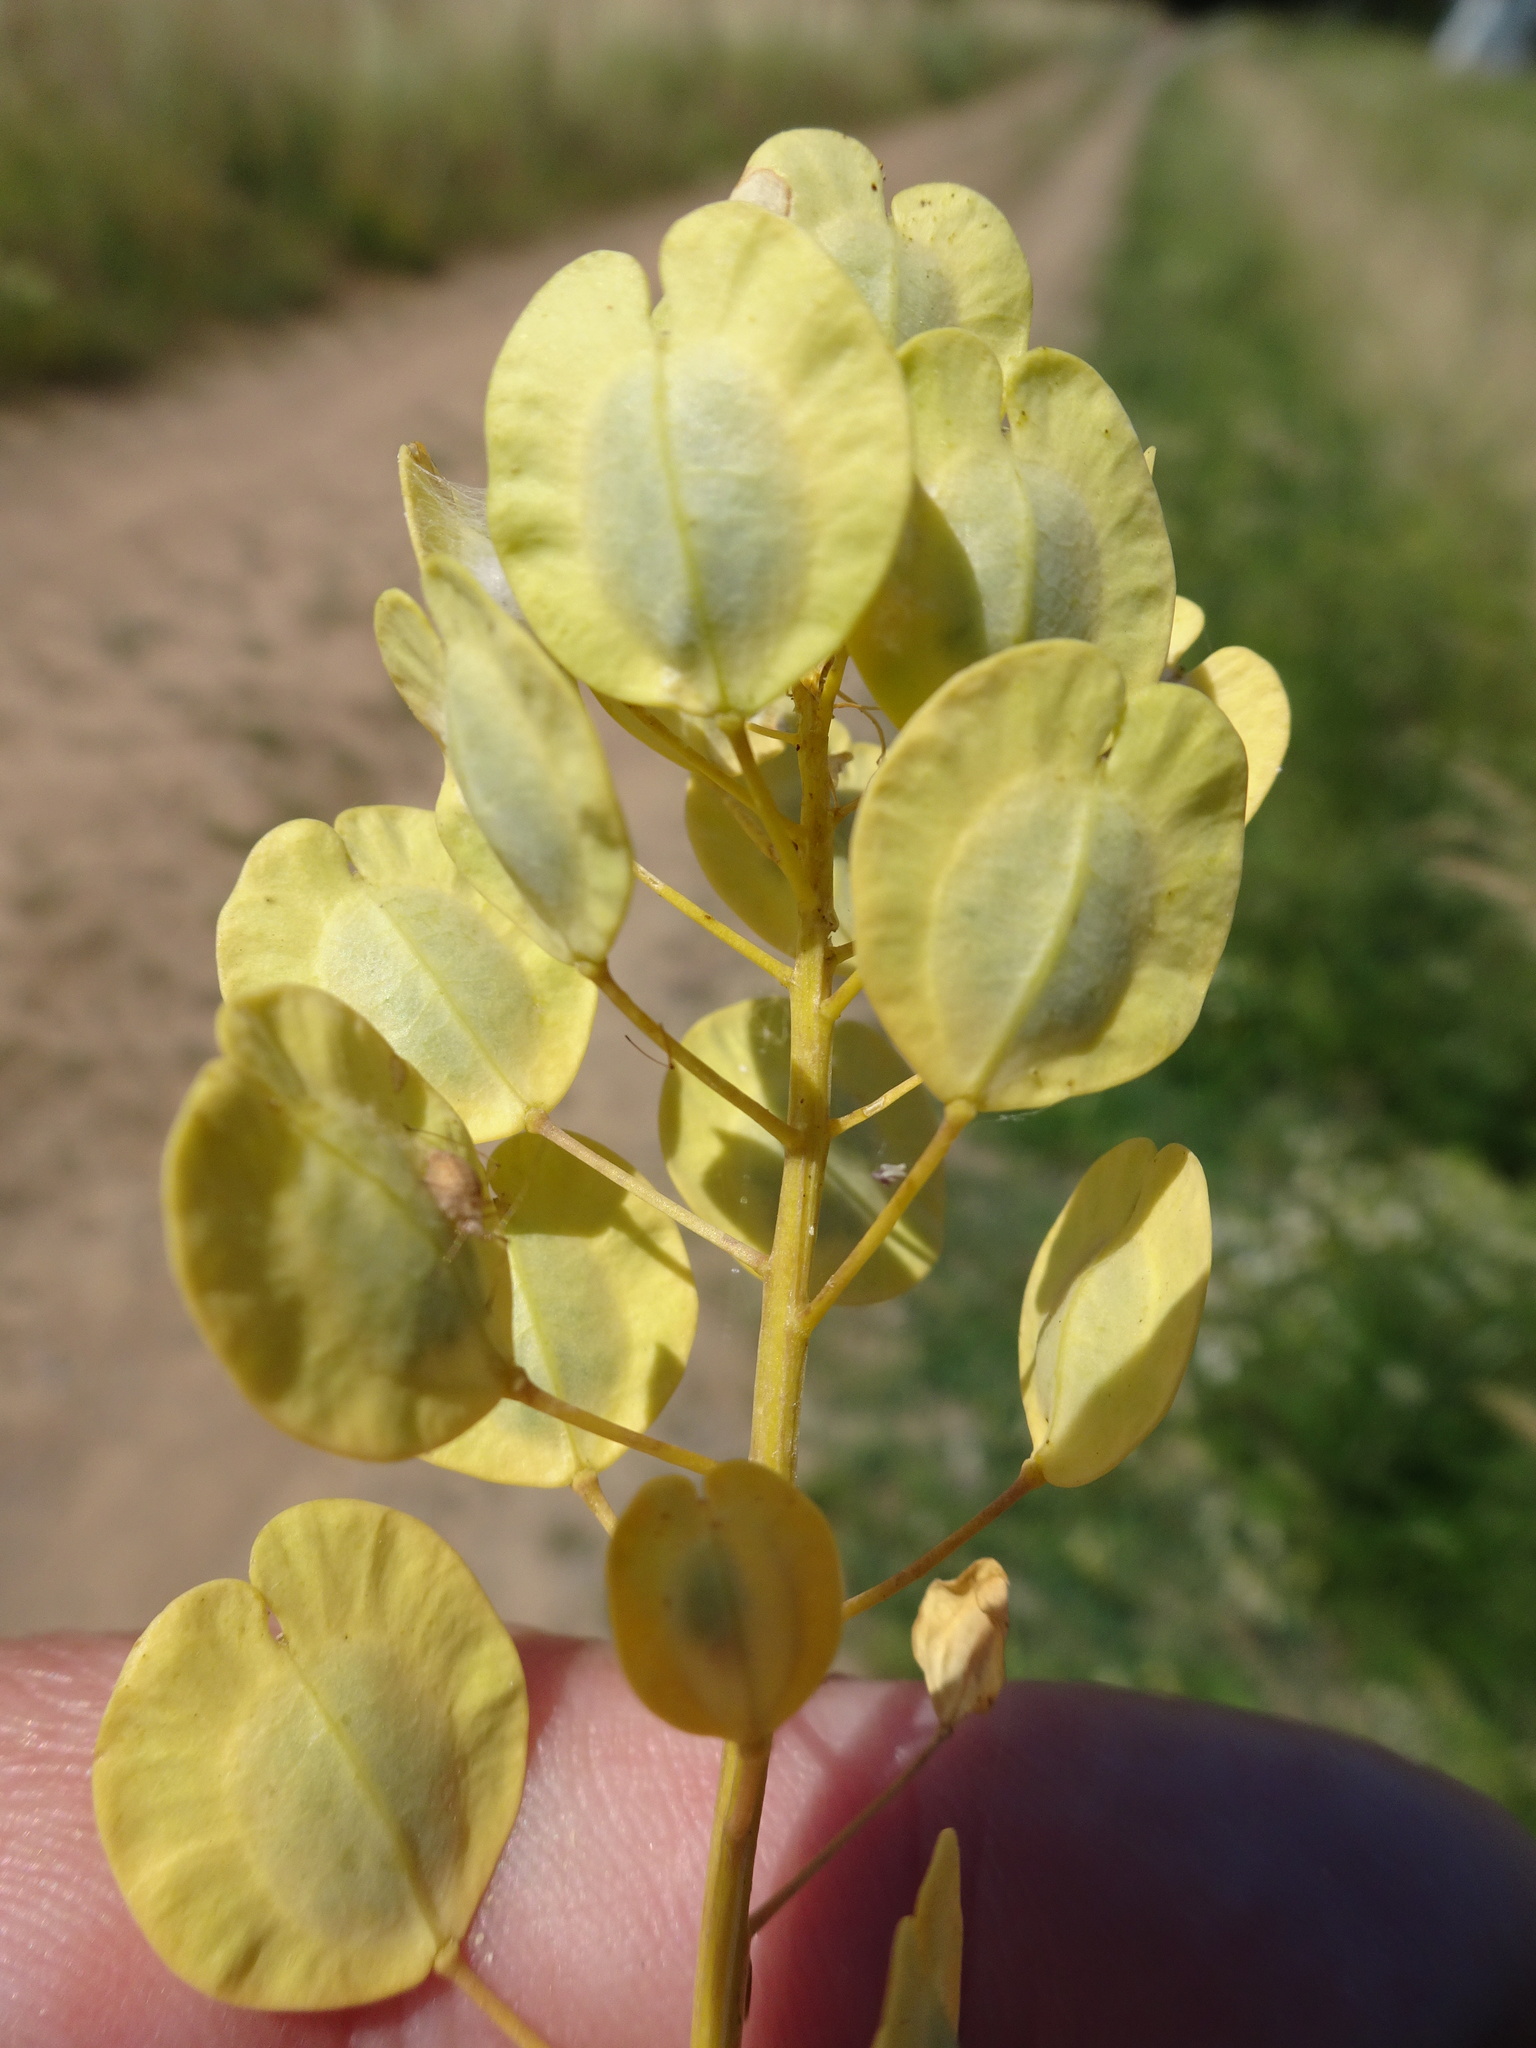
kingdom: Plantae
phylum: Tracheophyta
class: Magnoliopsida
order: Brassicales
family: Brassicaceae
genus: Thlaspi
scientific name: Thlaspi arvense
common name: Field pennycress
